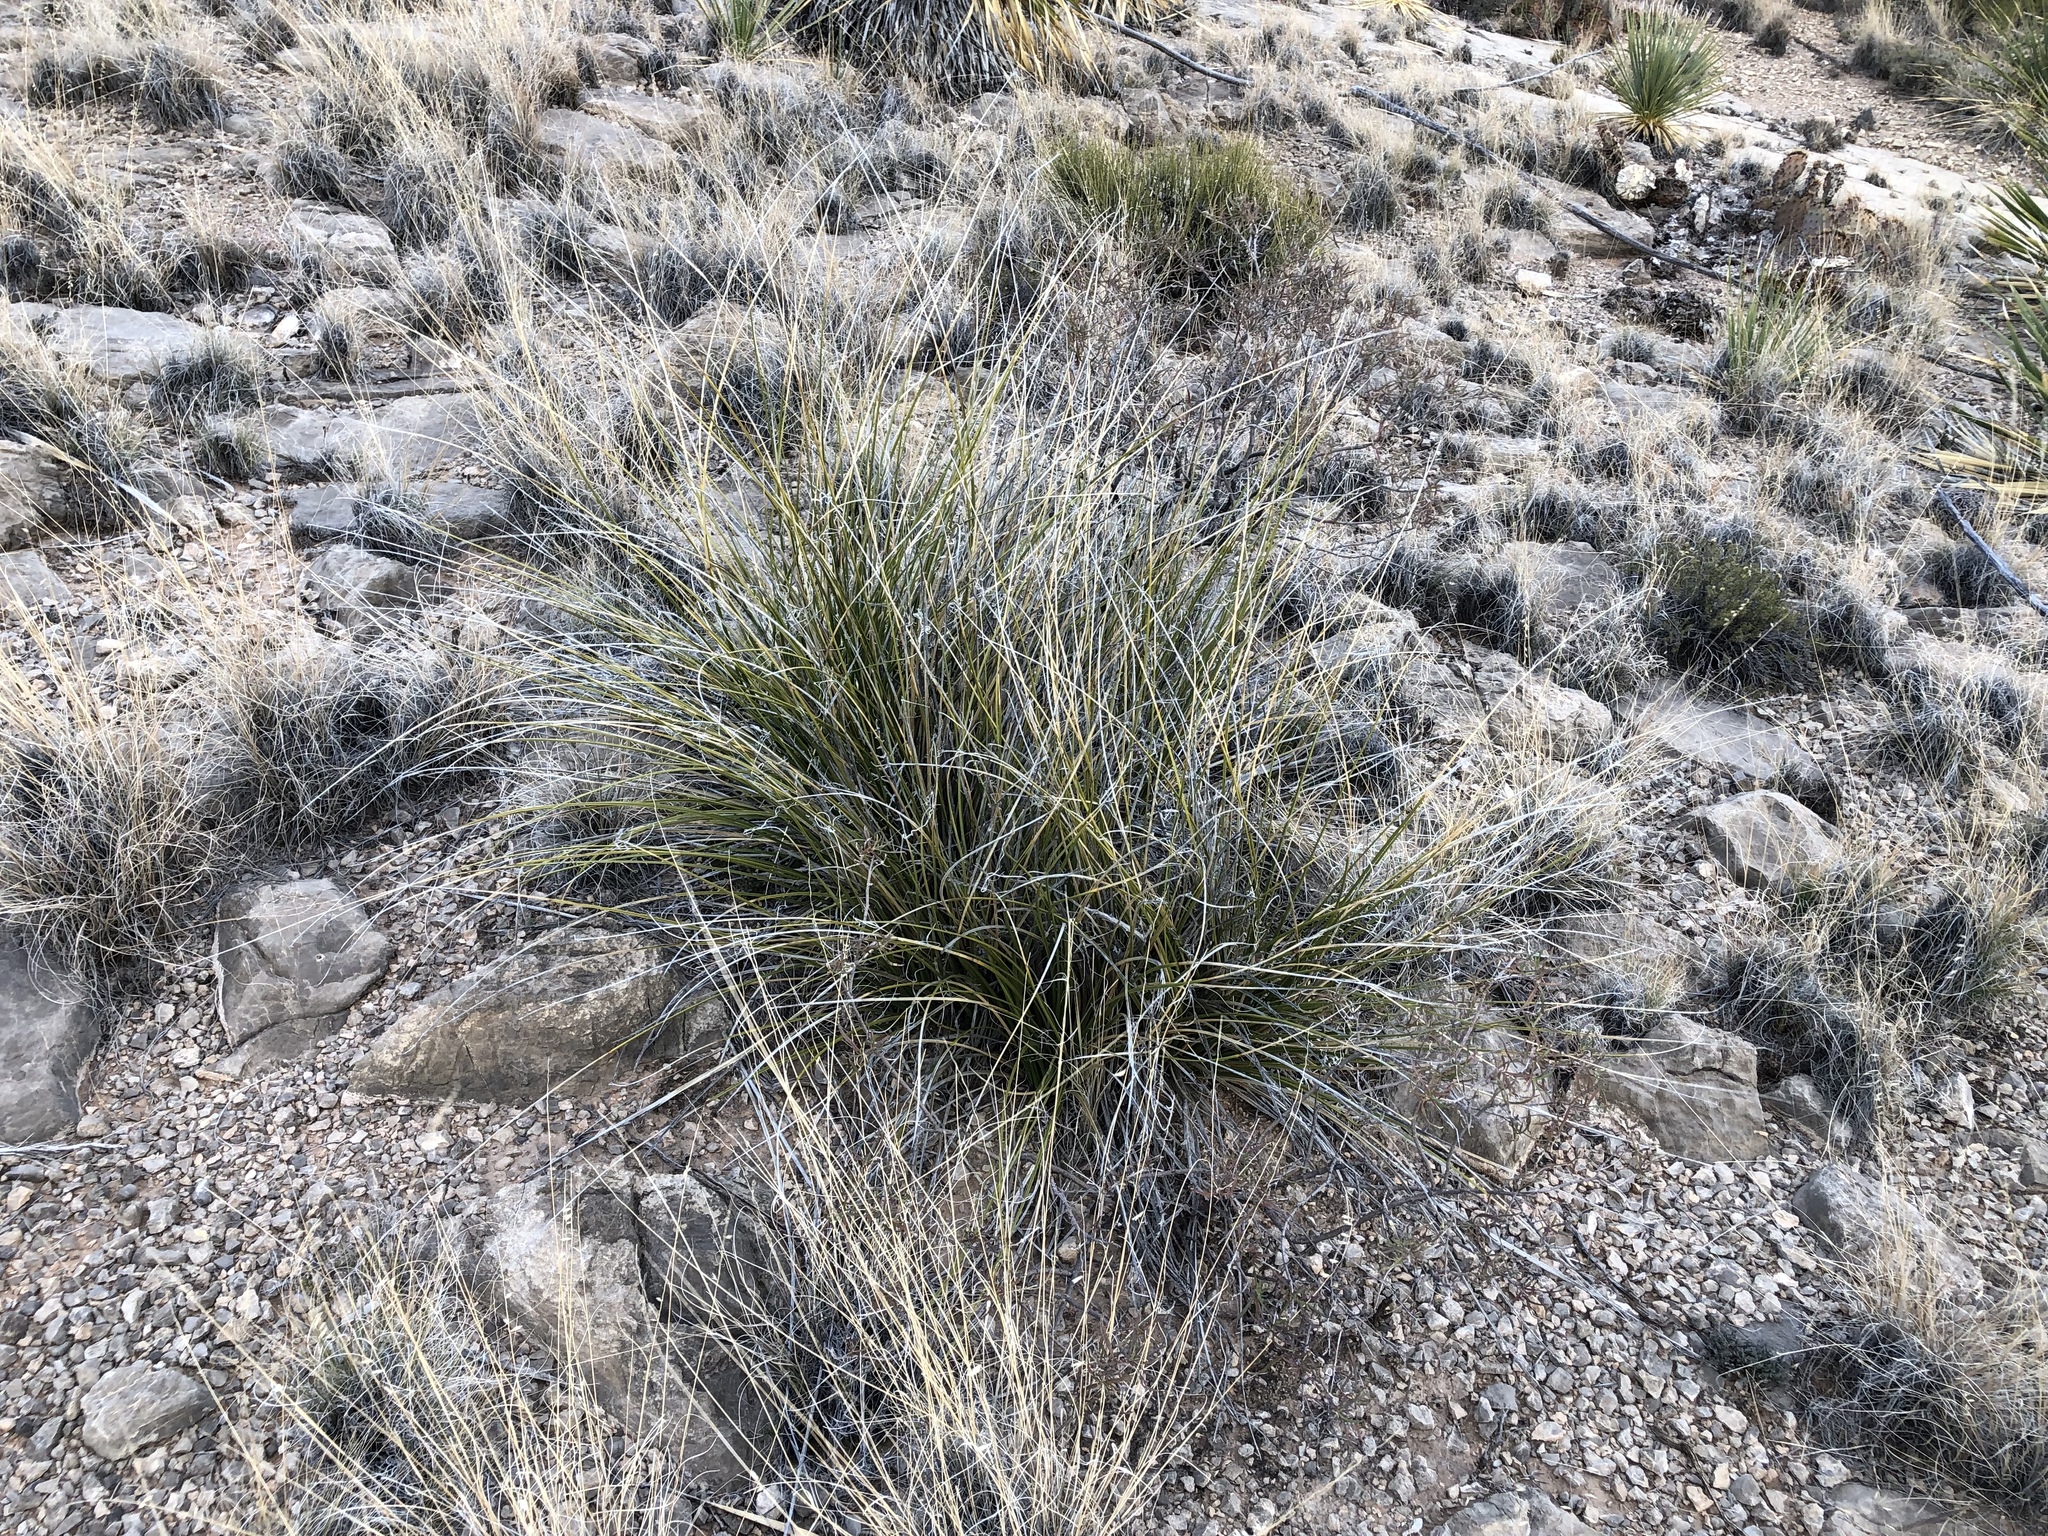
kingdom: Plantae
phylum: Tracheophyta
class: Liliopsida
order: Asparagales
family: Asparagaceae
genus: Nolina
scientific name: Nolina texana
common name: Texas sacahuiste
